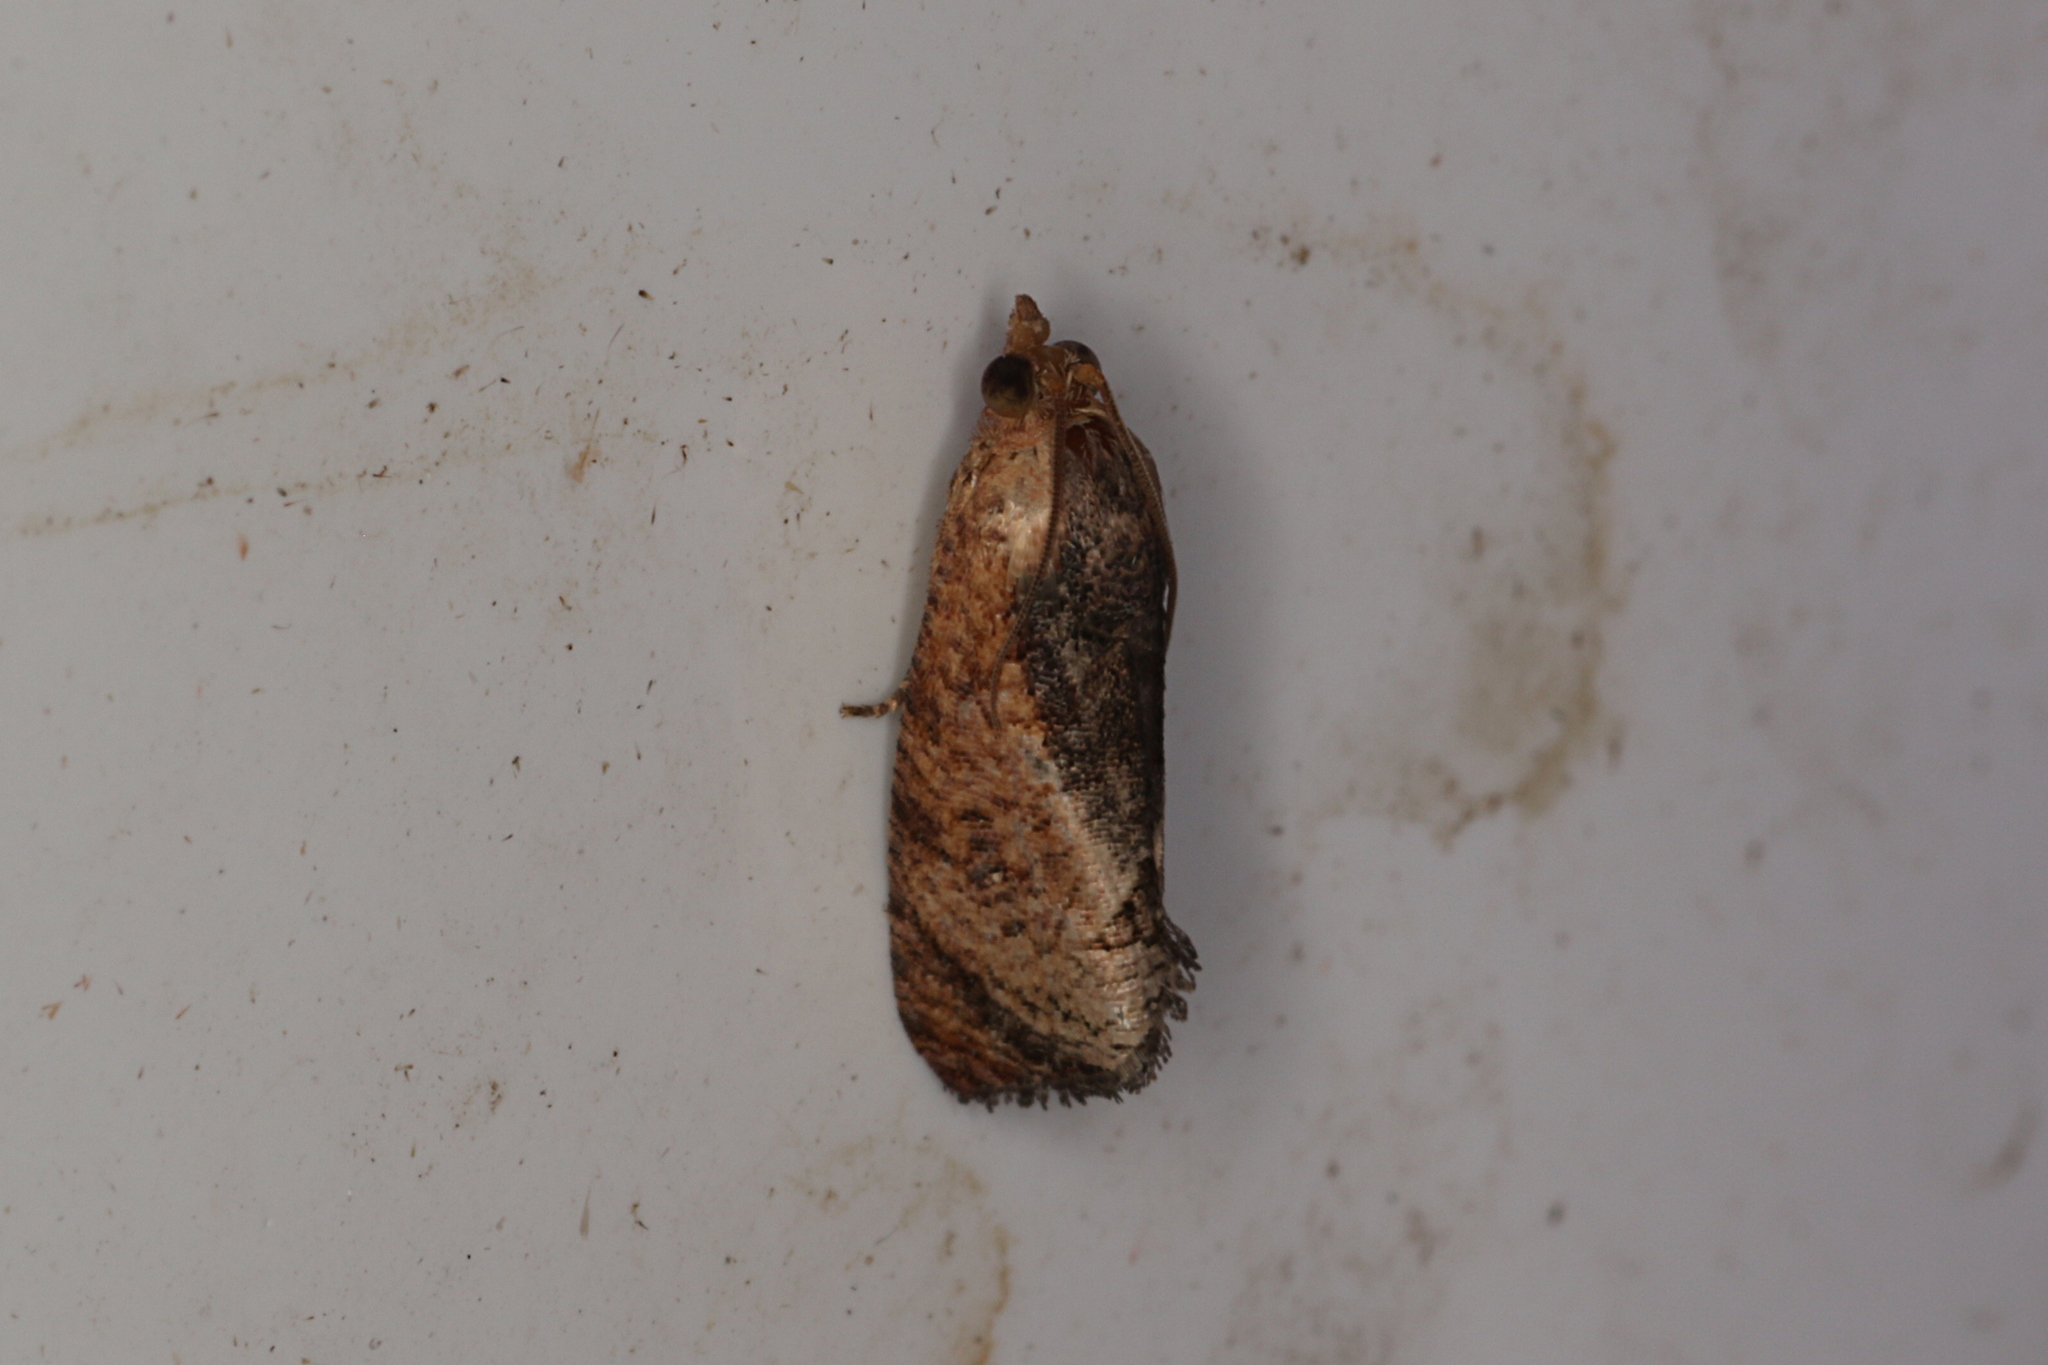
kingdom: Animalia
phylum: Arthropoda
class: Insecta
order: Lepidoptera
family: Tortricidae
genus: Cryptophlebia
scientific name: Cryptophlebia ombrodelta
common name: Litchi fruit moth
